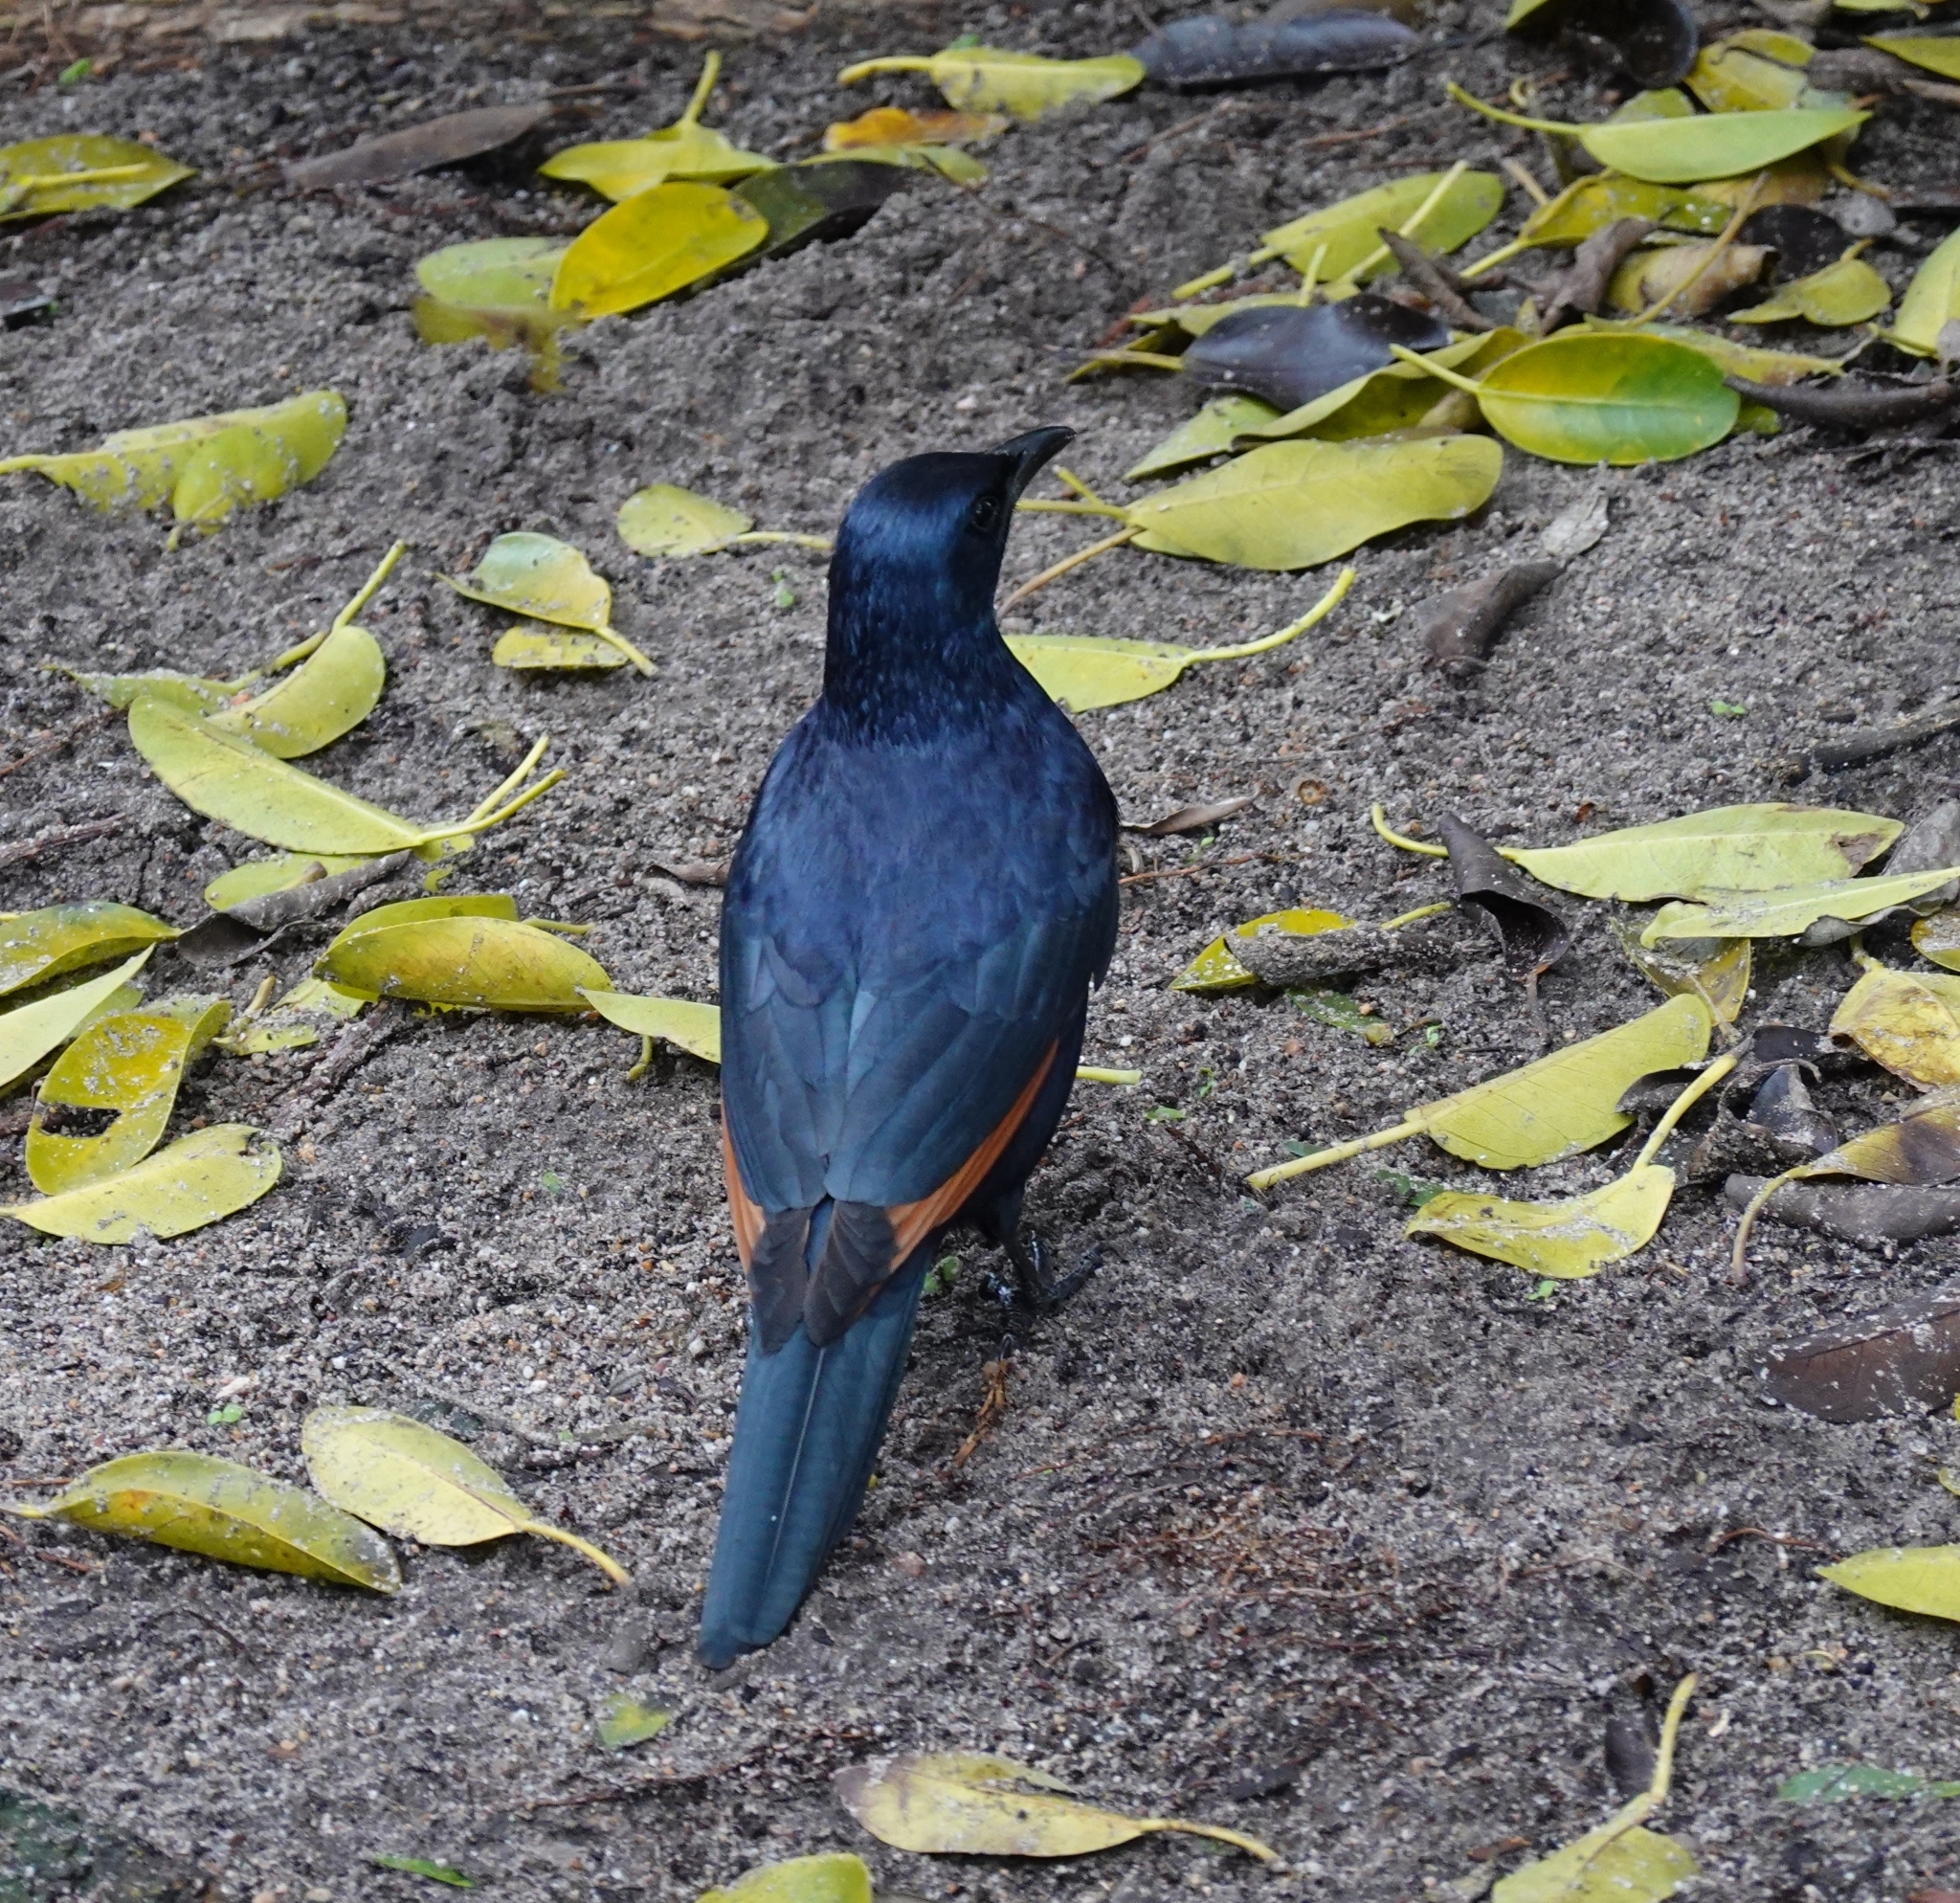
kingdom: Animalia
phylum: Chordata
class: Aves
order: Passeriformes
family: Sturnidae
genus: Onychognathus
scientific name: Onychognathus morio
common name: Red-winged starling
